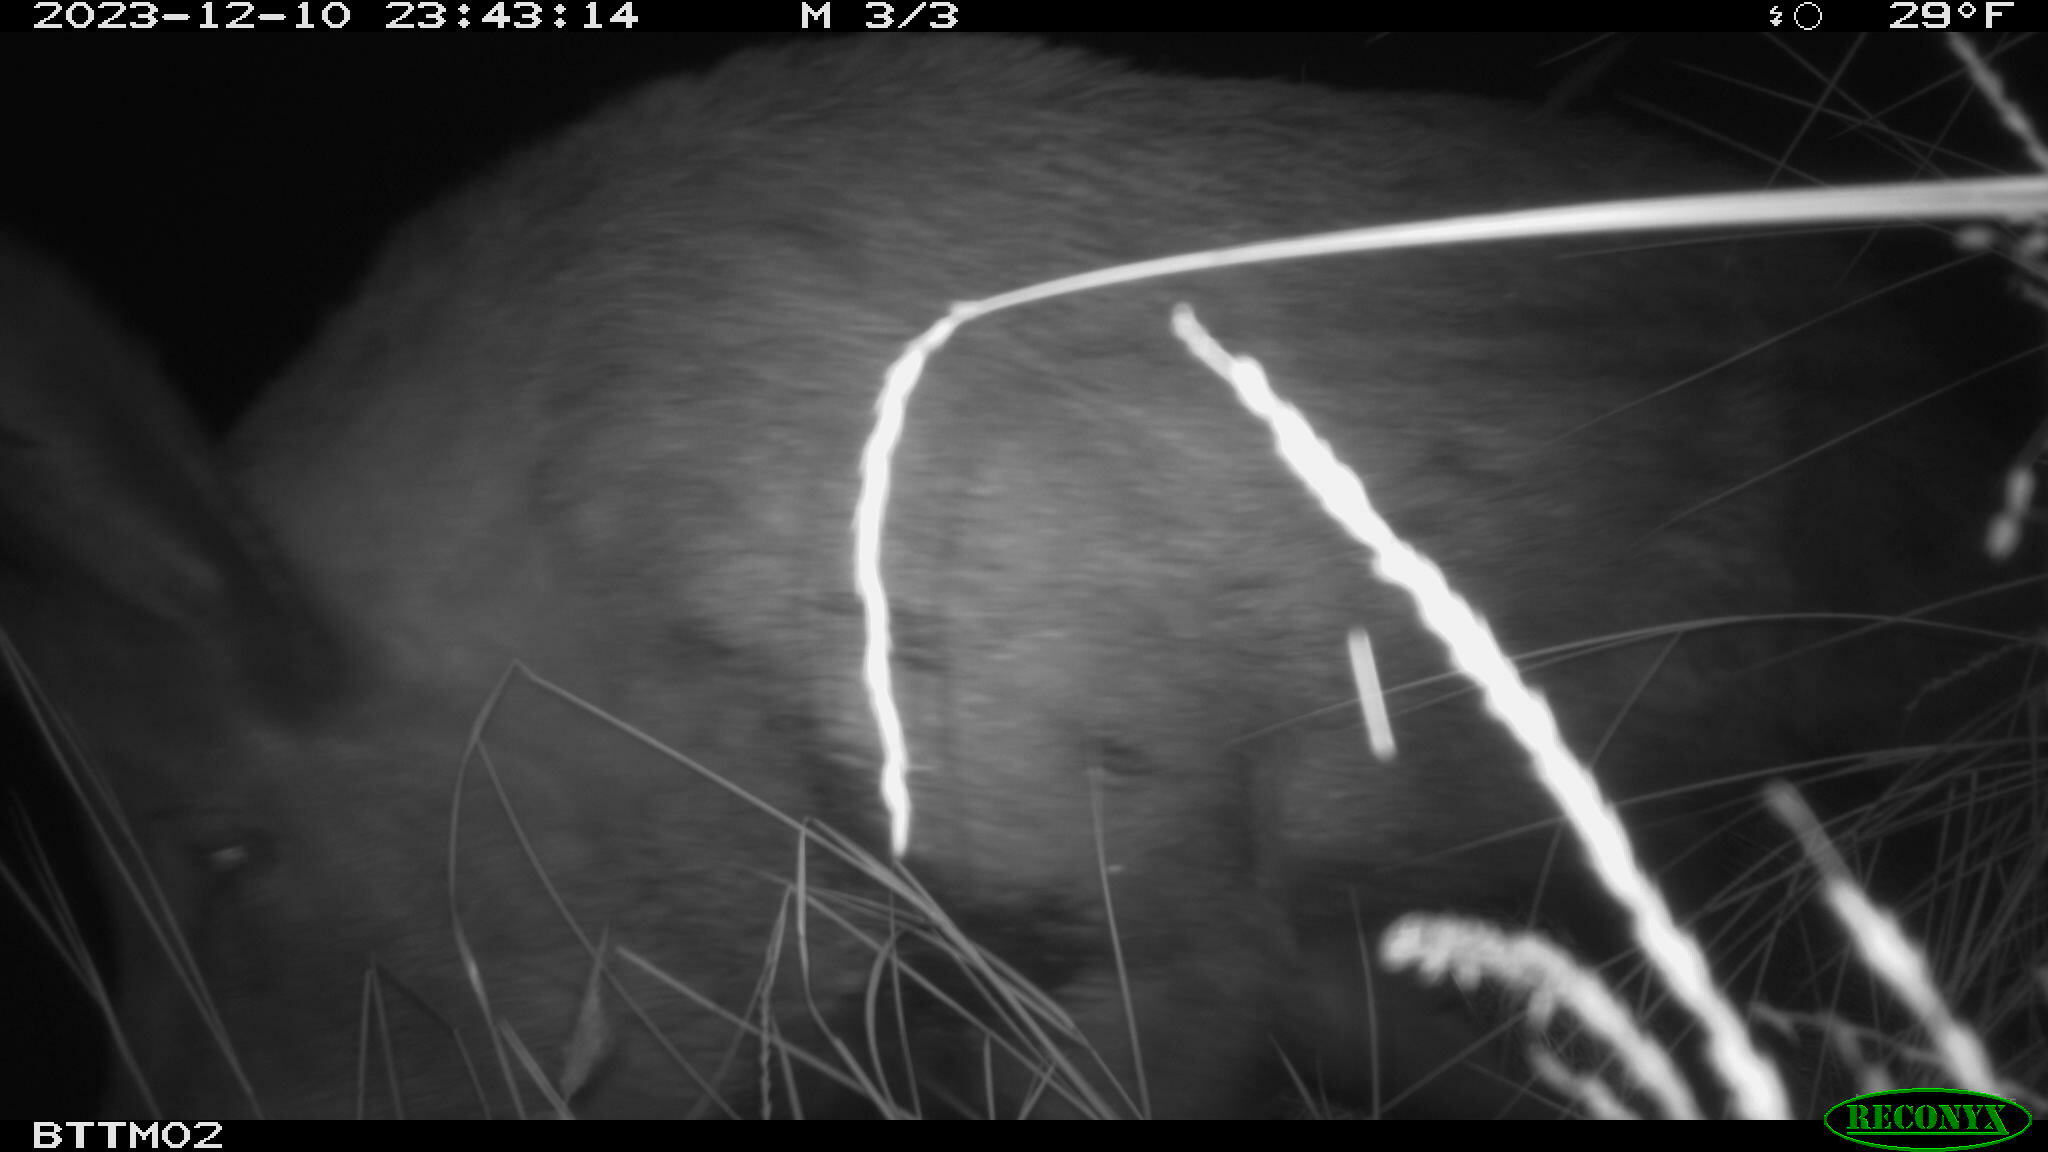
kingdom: Animalia
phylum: Chordata
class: Mammalia
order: Artiodactyla
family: Suidae
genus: Sus
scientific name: Sus scrofa
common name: Wild boar
